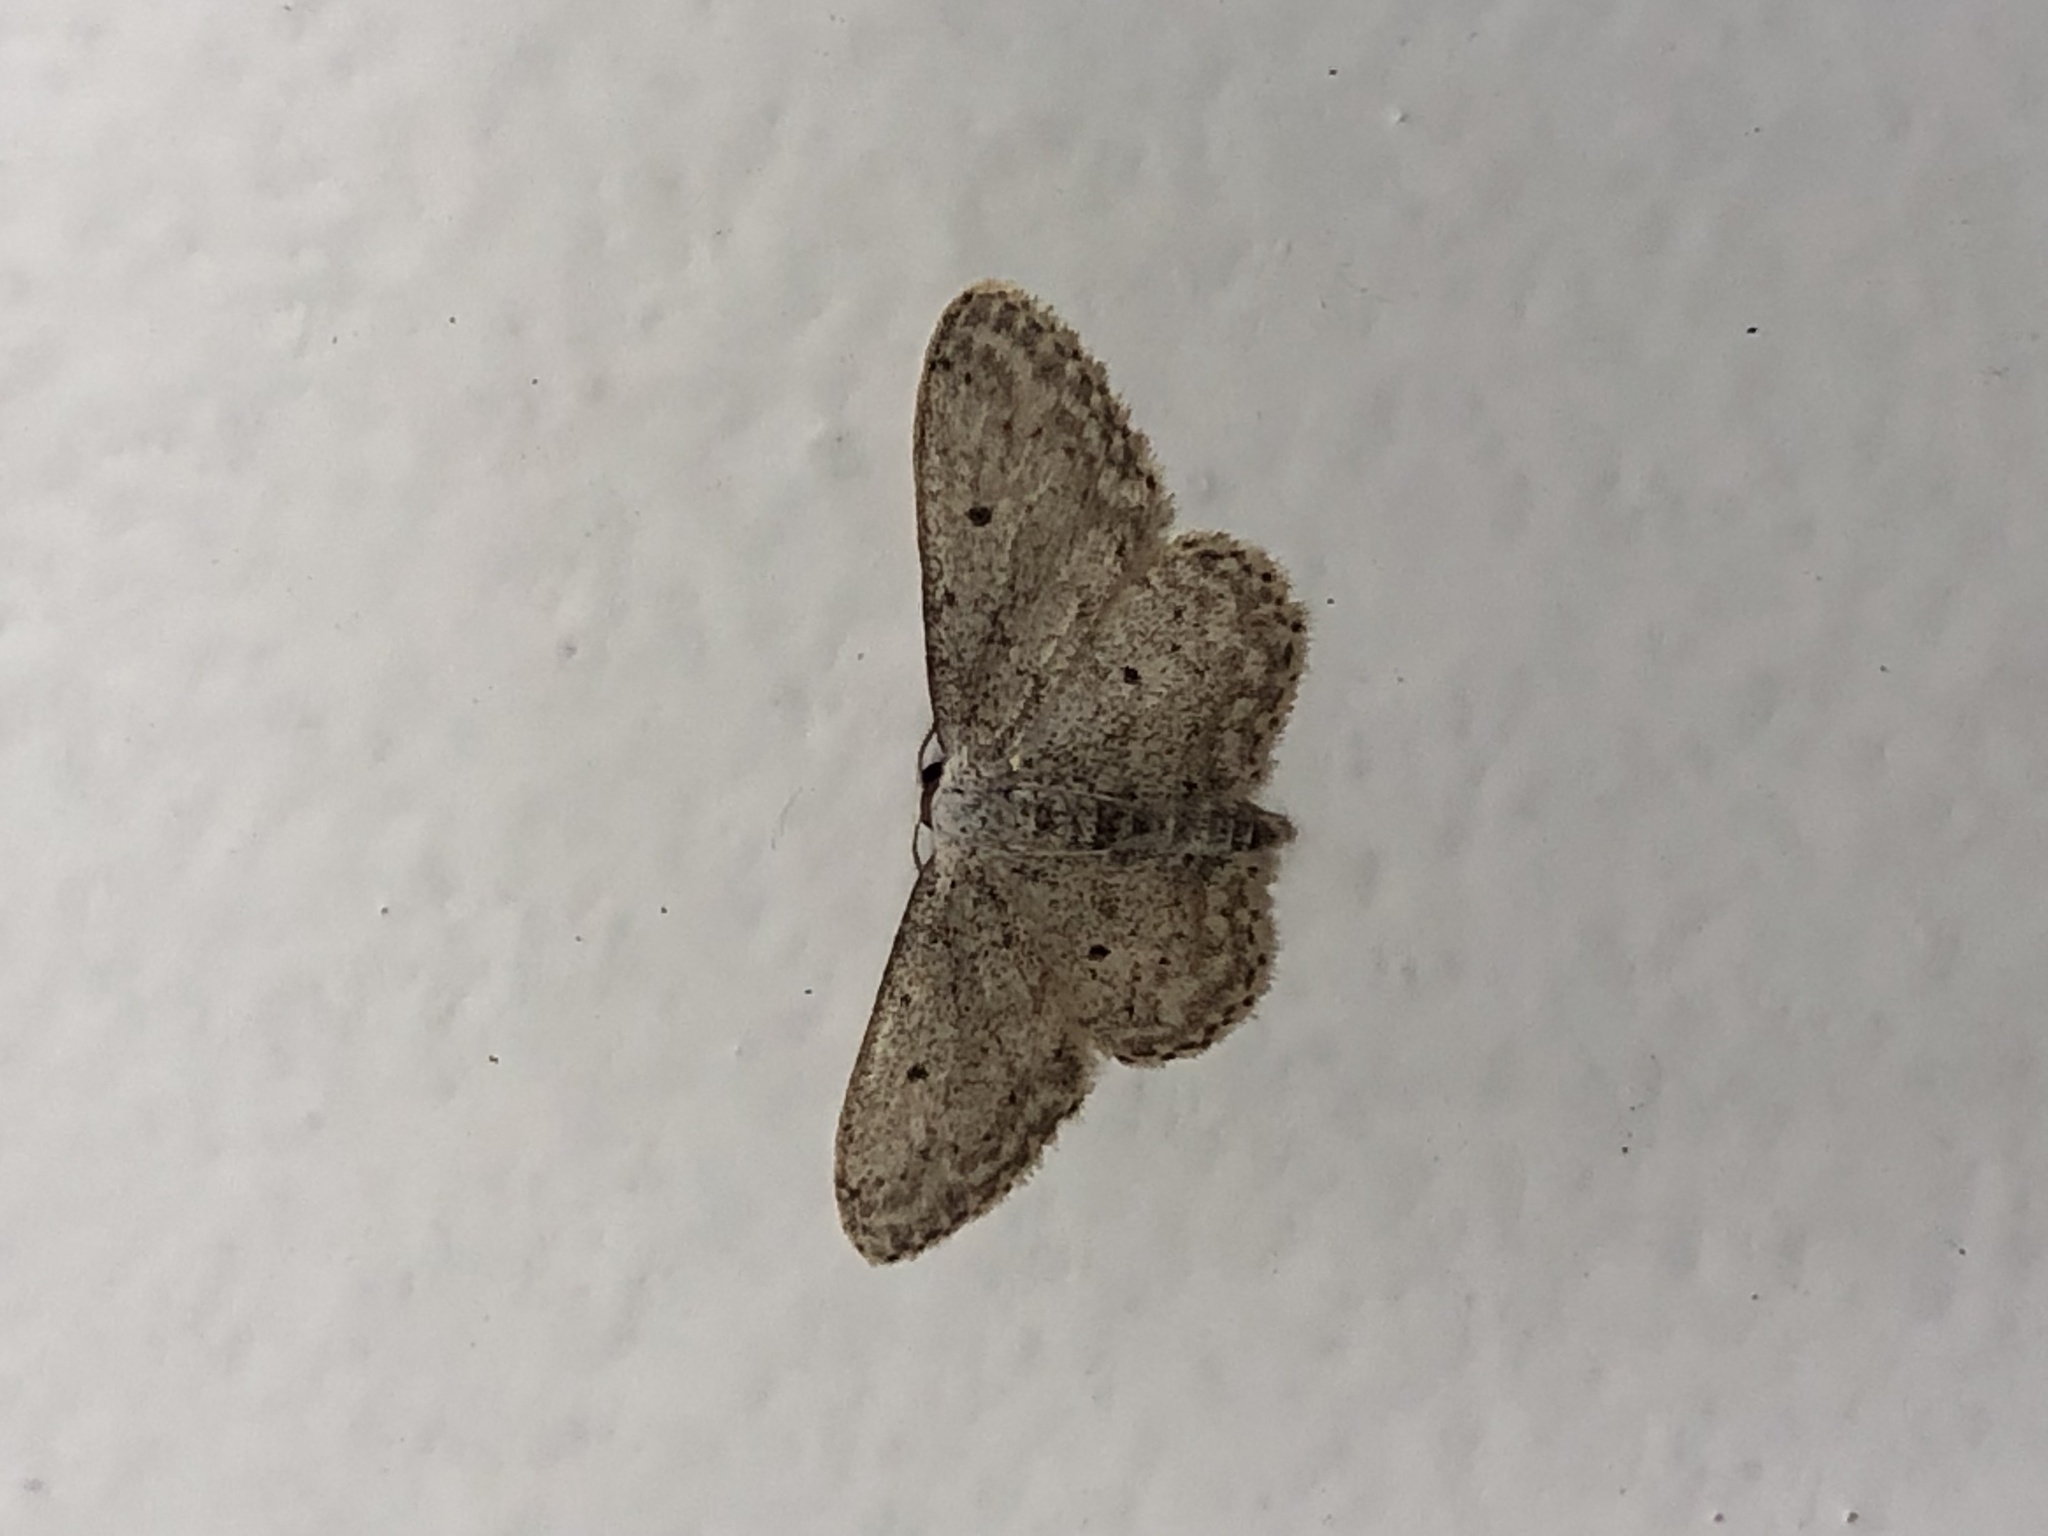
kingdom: Animalia
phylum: Arthropoda
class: Insecta
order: Lepidoptera
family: Geometridae
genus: Idaea
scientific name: Idaea seriata
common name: Small dusty wave
